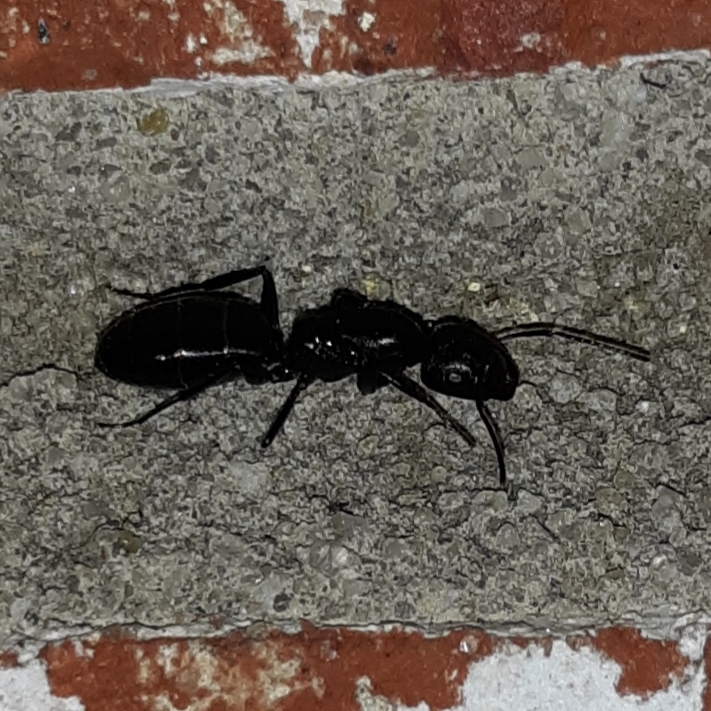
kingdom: Animalia
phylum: Arthropoda
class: Insecta
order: Hymenoptera
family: Formicidae
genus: Camponotus
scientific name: Camponotus pennsylvanicus
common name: Black carpenter ant
